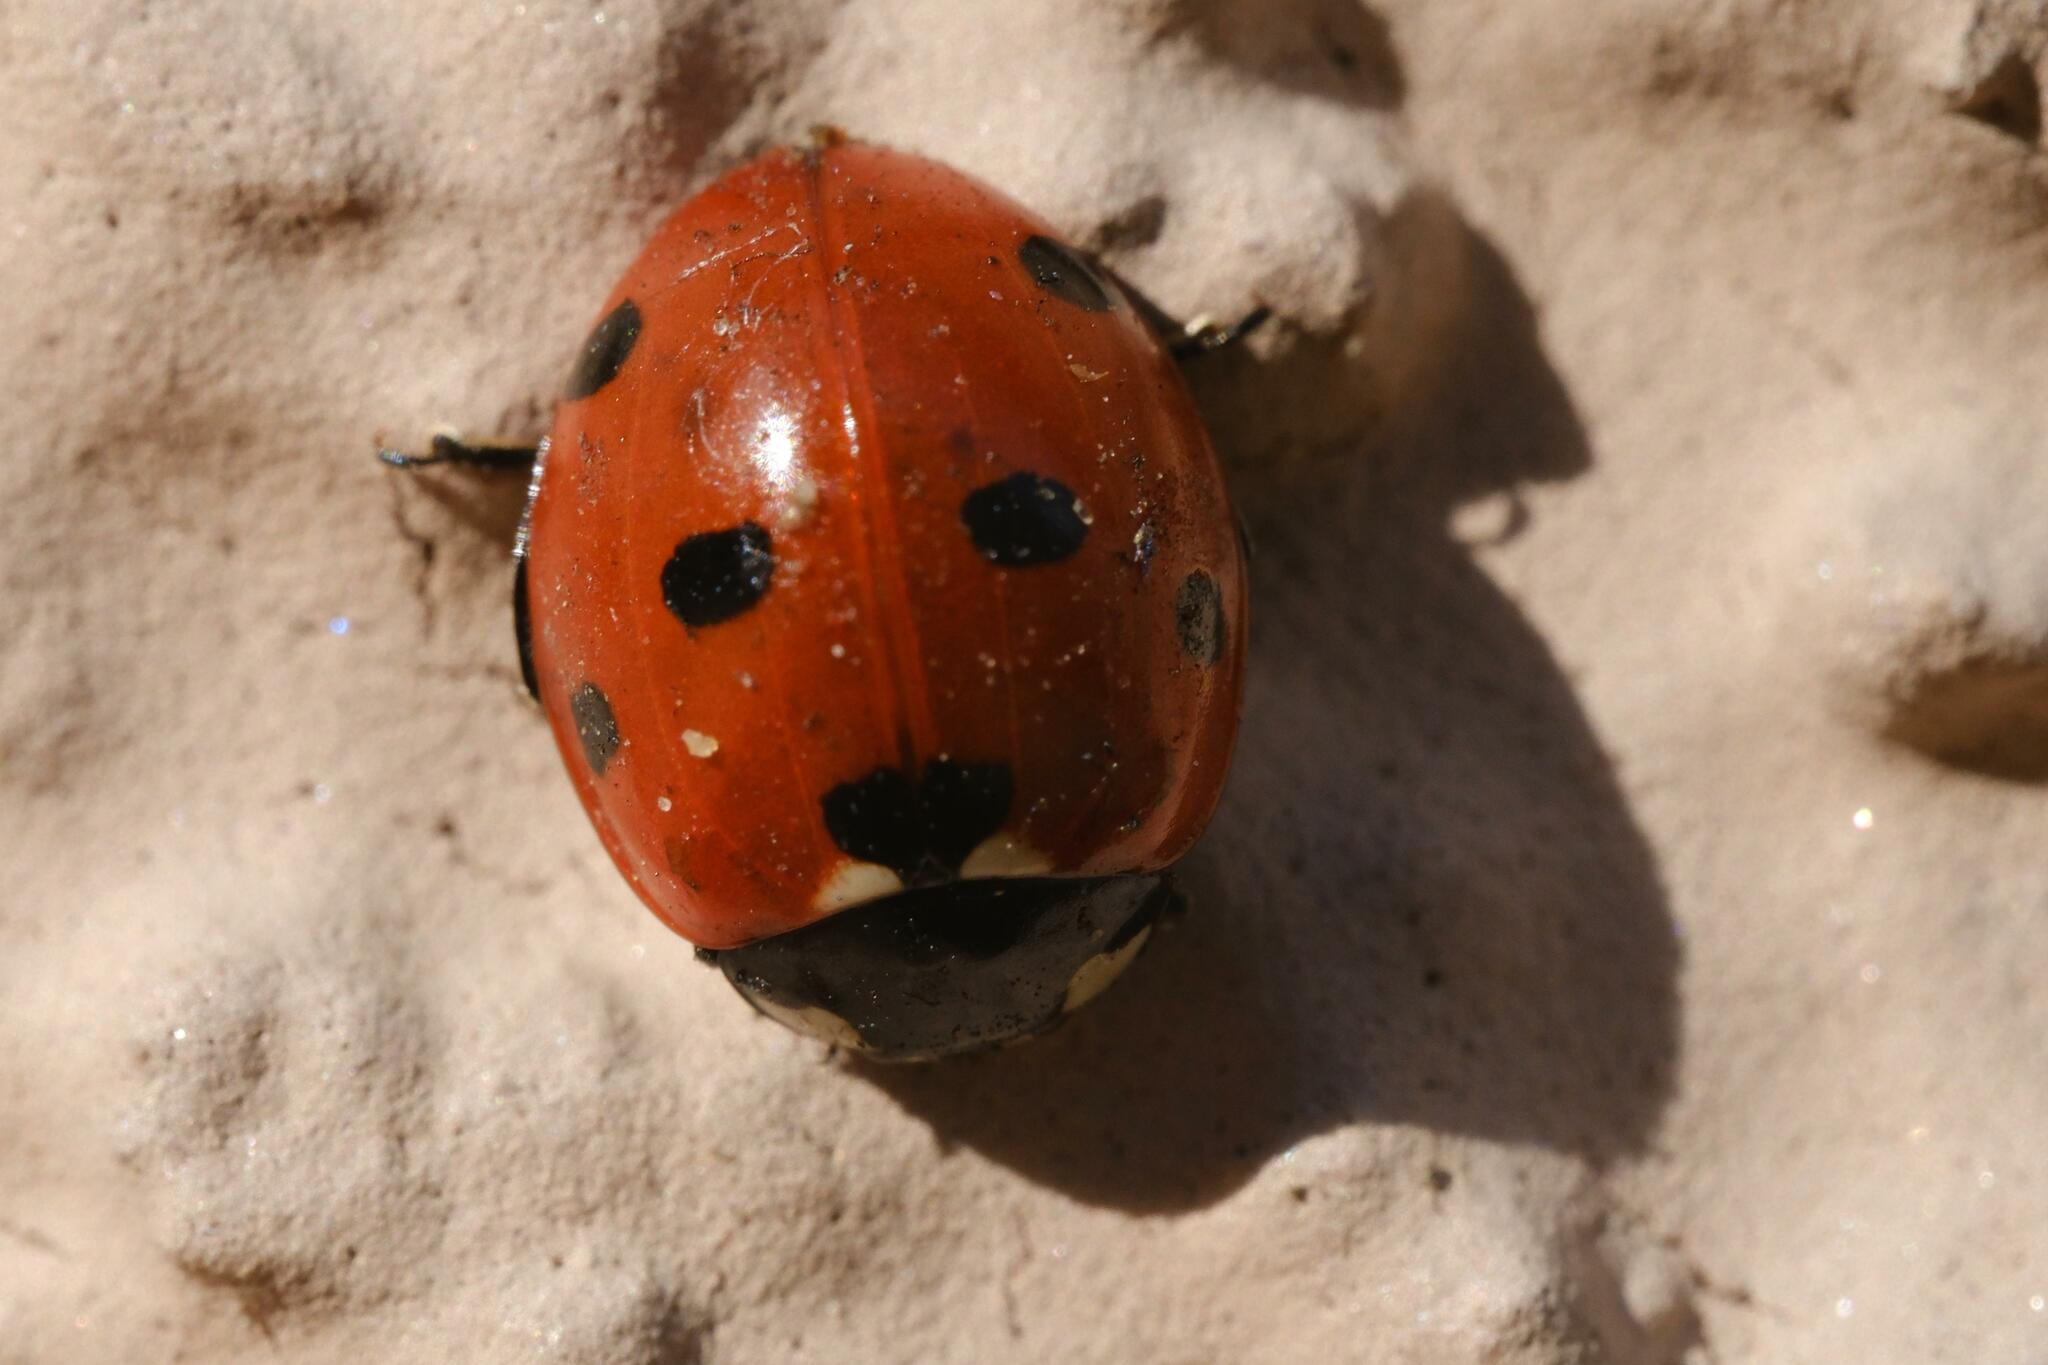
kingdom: Animalia
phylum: Arthropoda
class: Insecta
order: Coleoptera
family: Coccinellidae
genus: Coccinella
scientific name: Coccinella septempunctata
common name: Sevenspotted lady beetle
